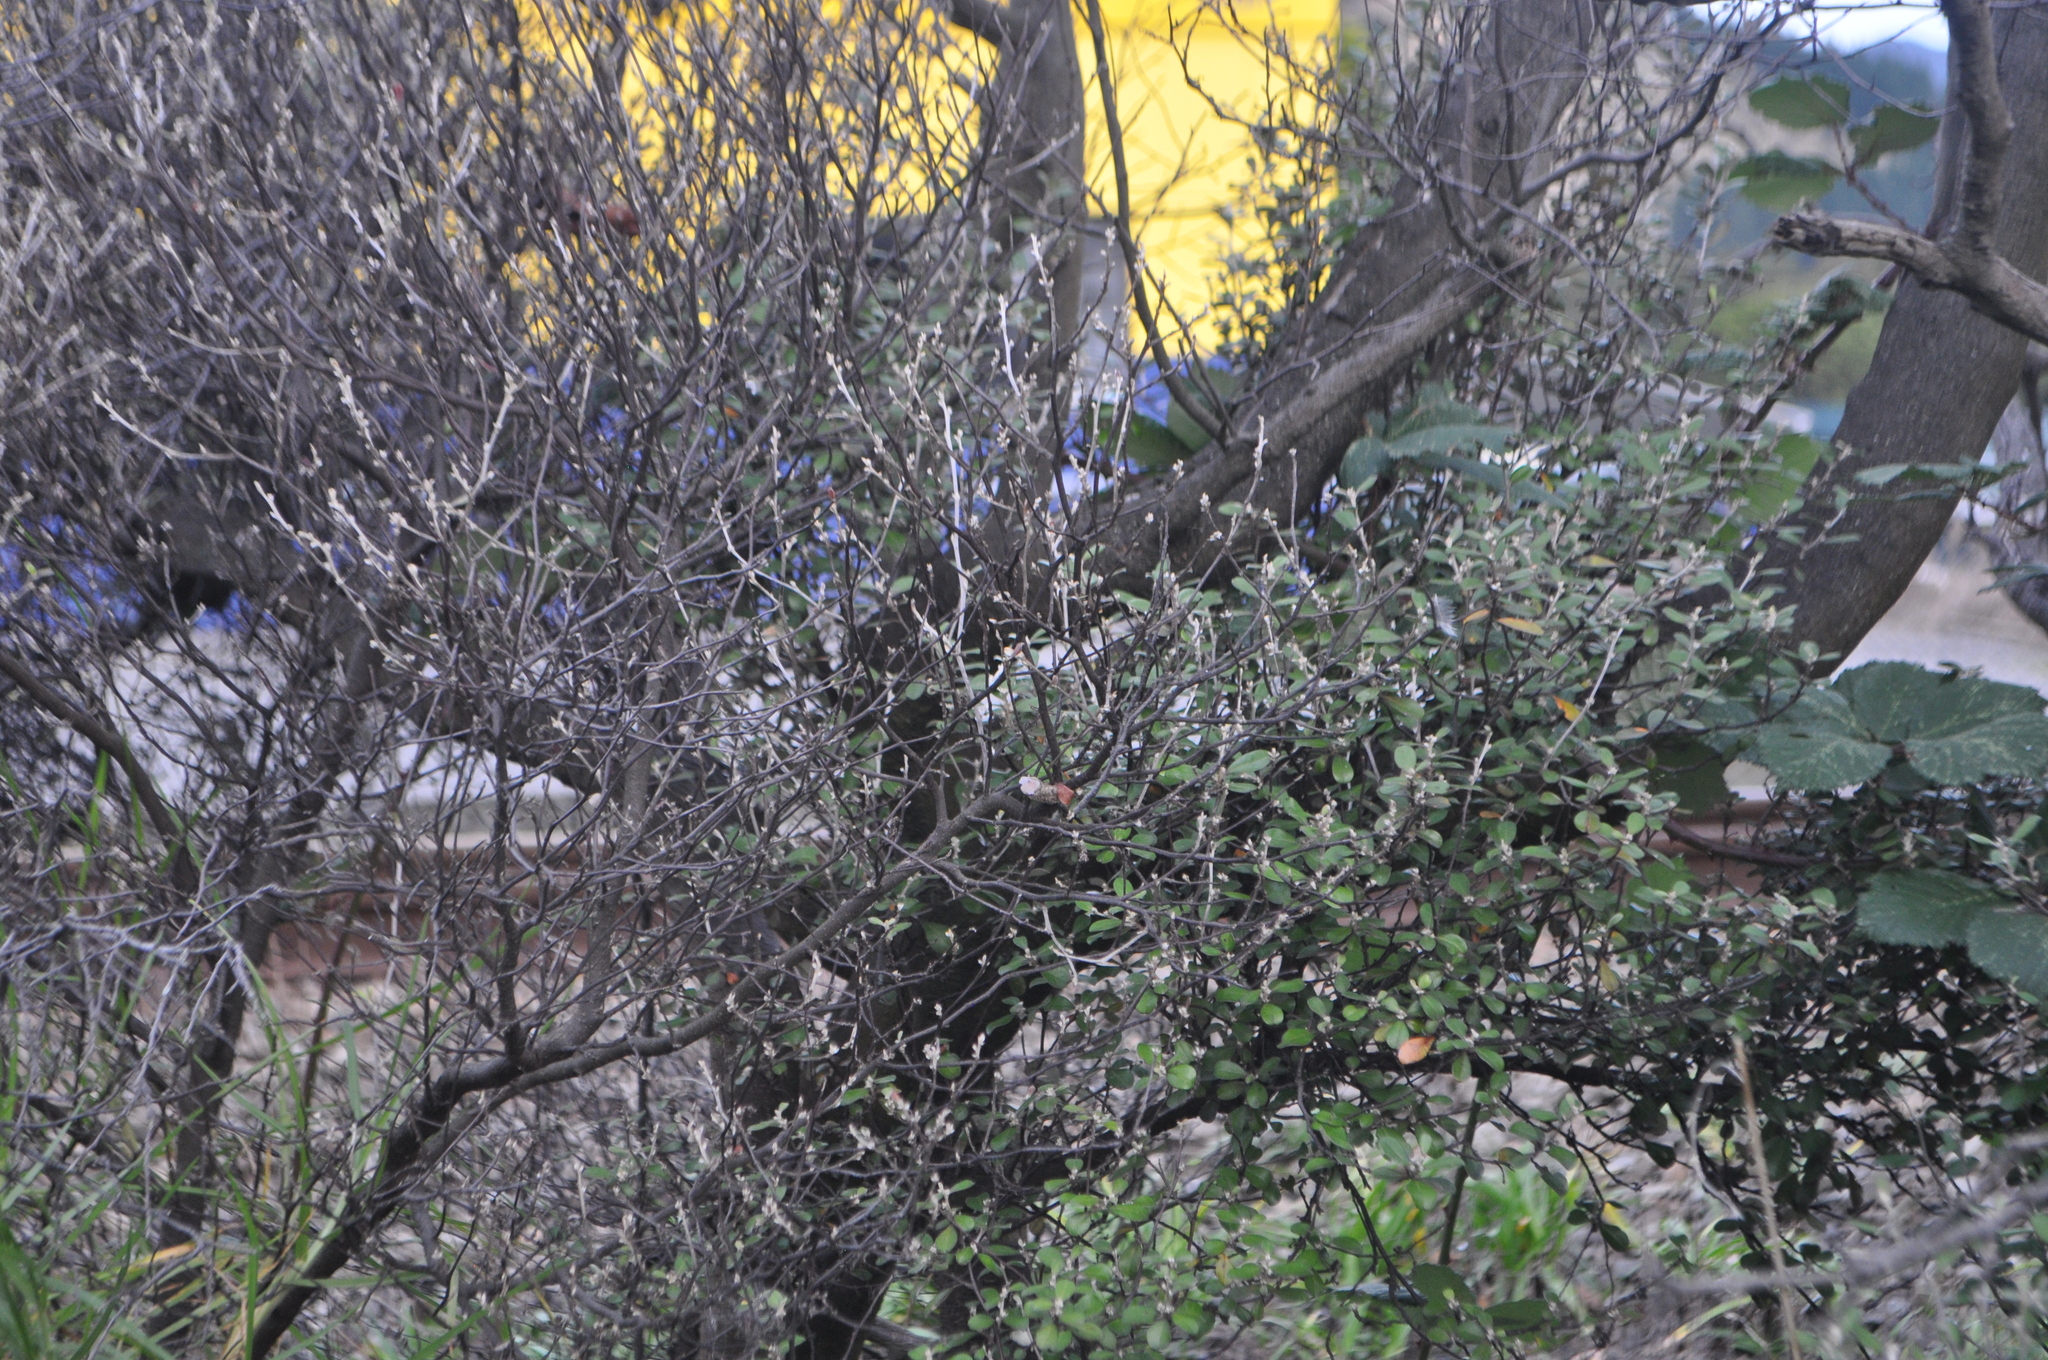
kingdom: Plantae
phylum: Tracheophyta
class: Magnoliopsida
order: Asterales
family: Argophyllaceae
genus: Corokia
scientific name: Corokia cotoneaster
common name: Wire nettingbush
